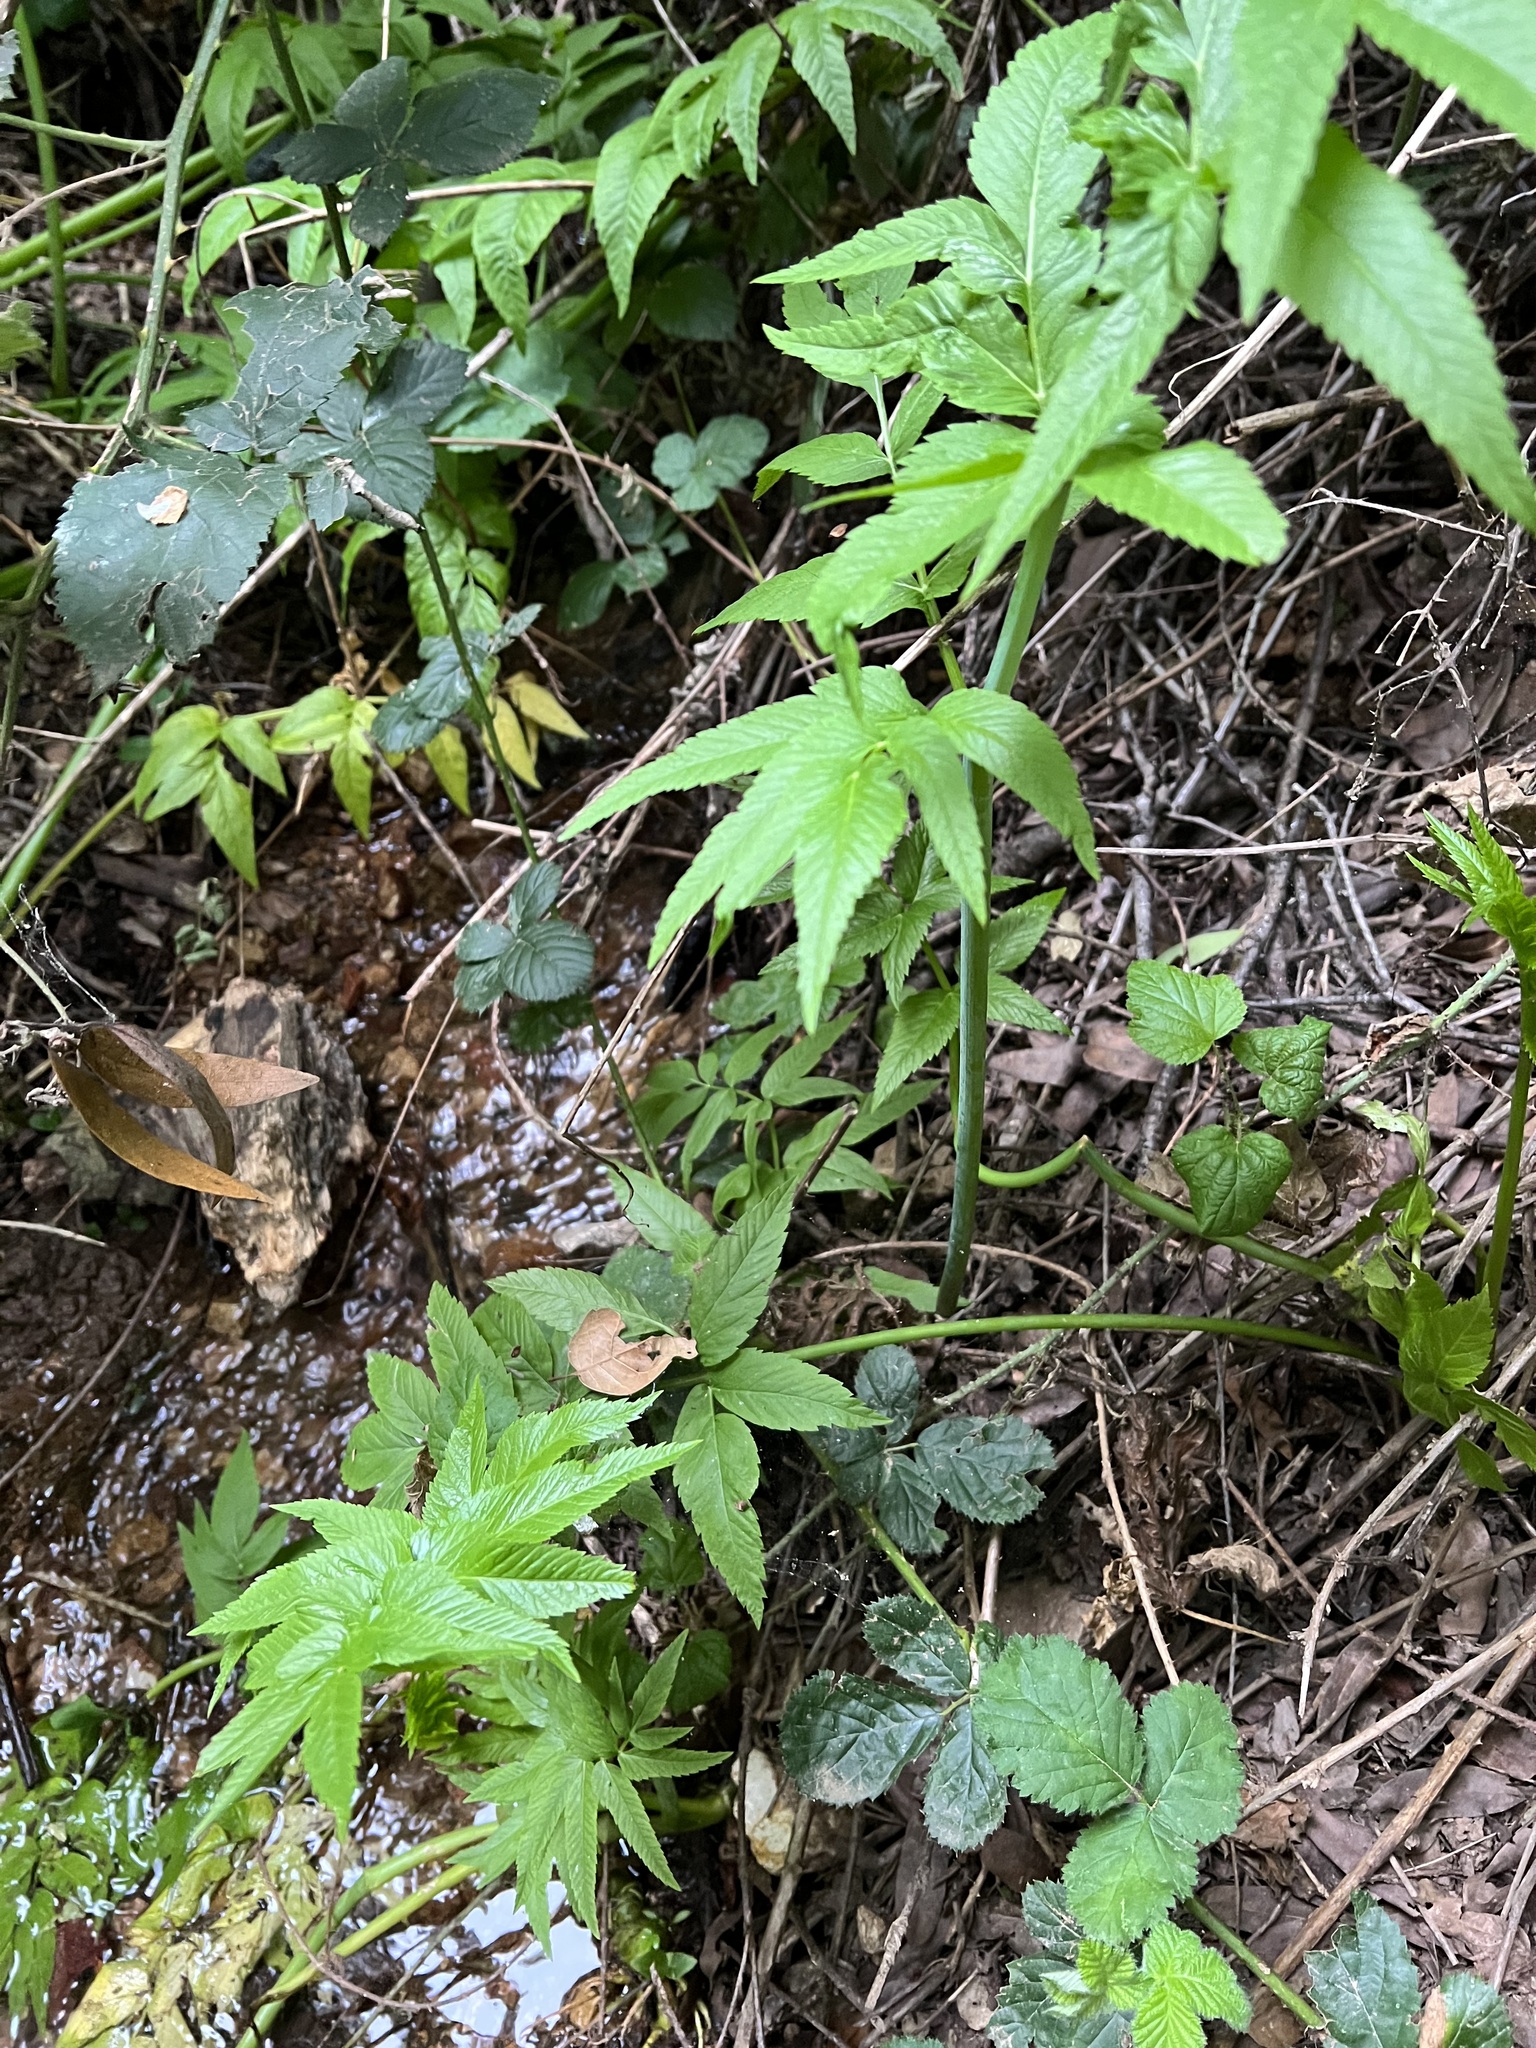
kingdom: Plantae
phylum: Tracheophyta
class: Magnoliopsida
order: Apiales
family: Apiaceae
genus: Cicuta
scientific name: Cicuta douglasii
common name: Western water-hemlock
